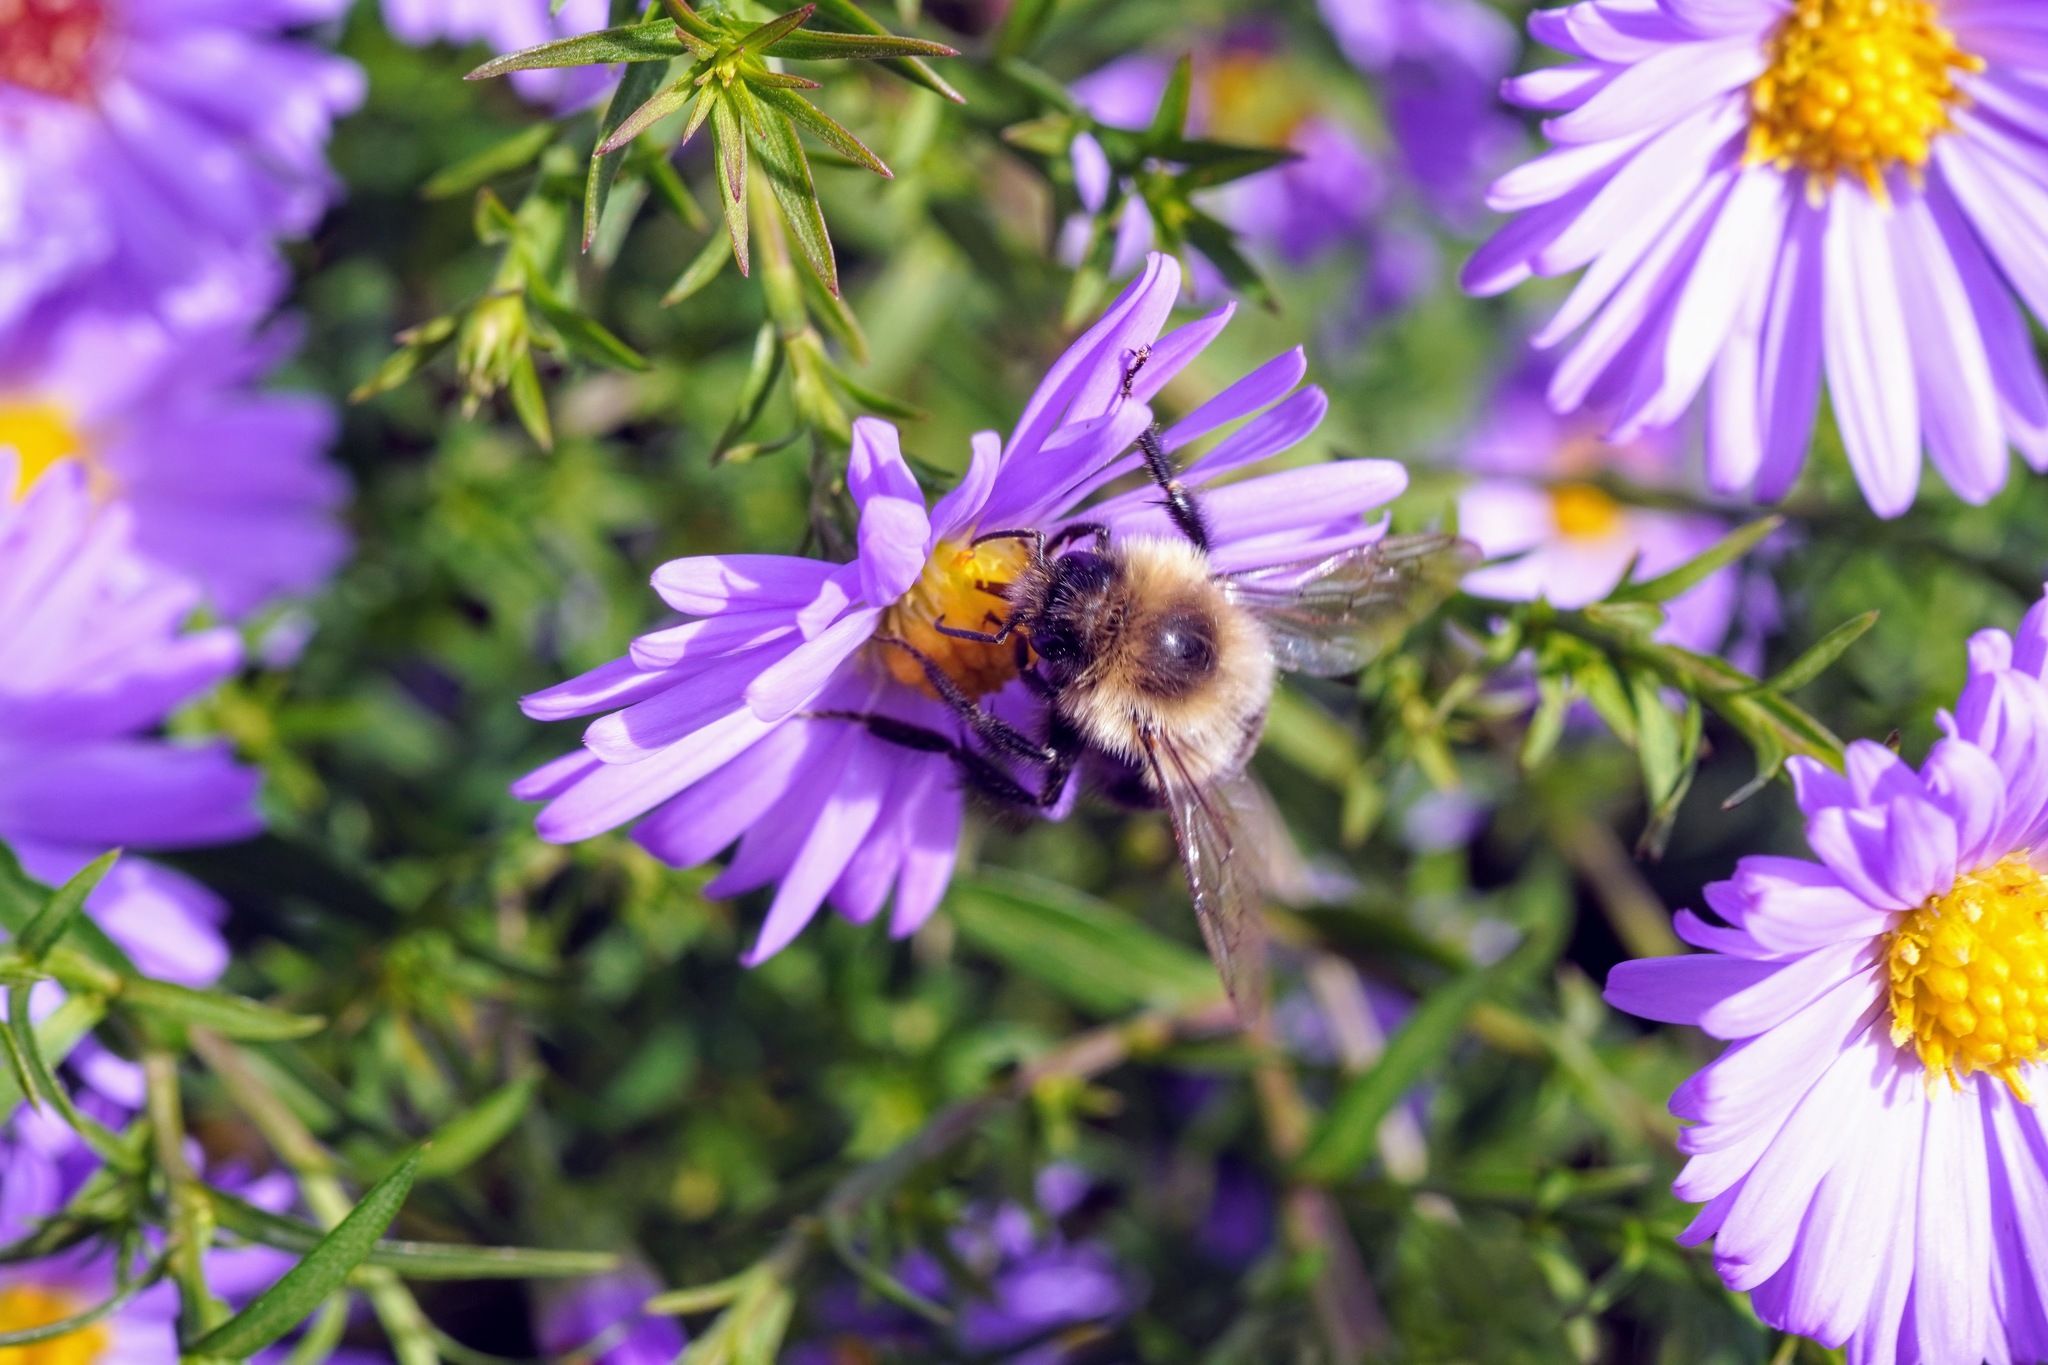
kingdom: Animalia
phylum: Arthropoda
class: Insecta
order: Hymenoptera
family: Apidae
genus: Bombus
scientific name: Bombus impatiens
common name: Common eastern bumble bee
